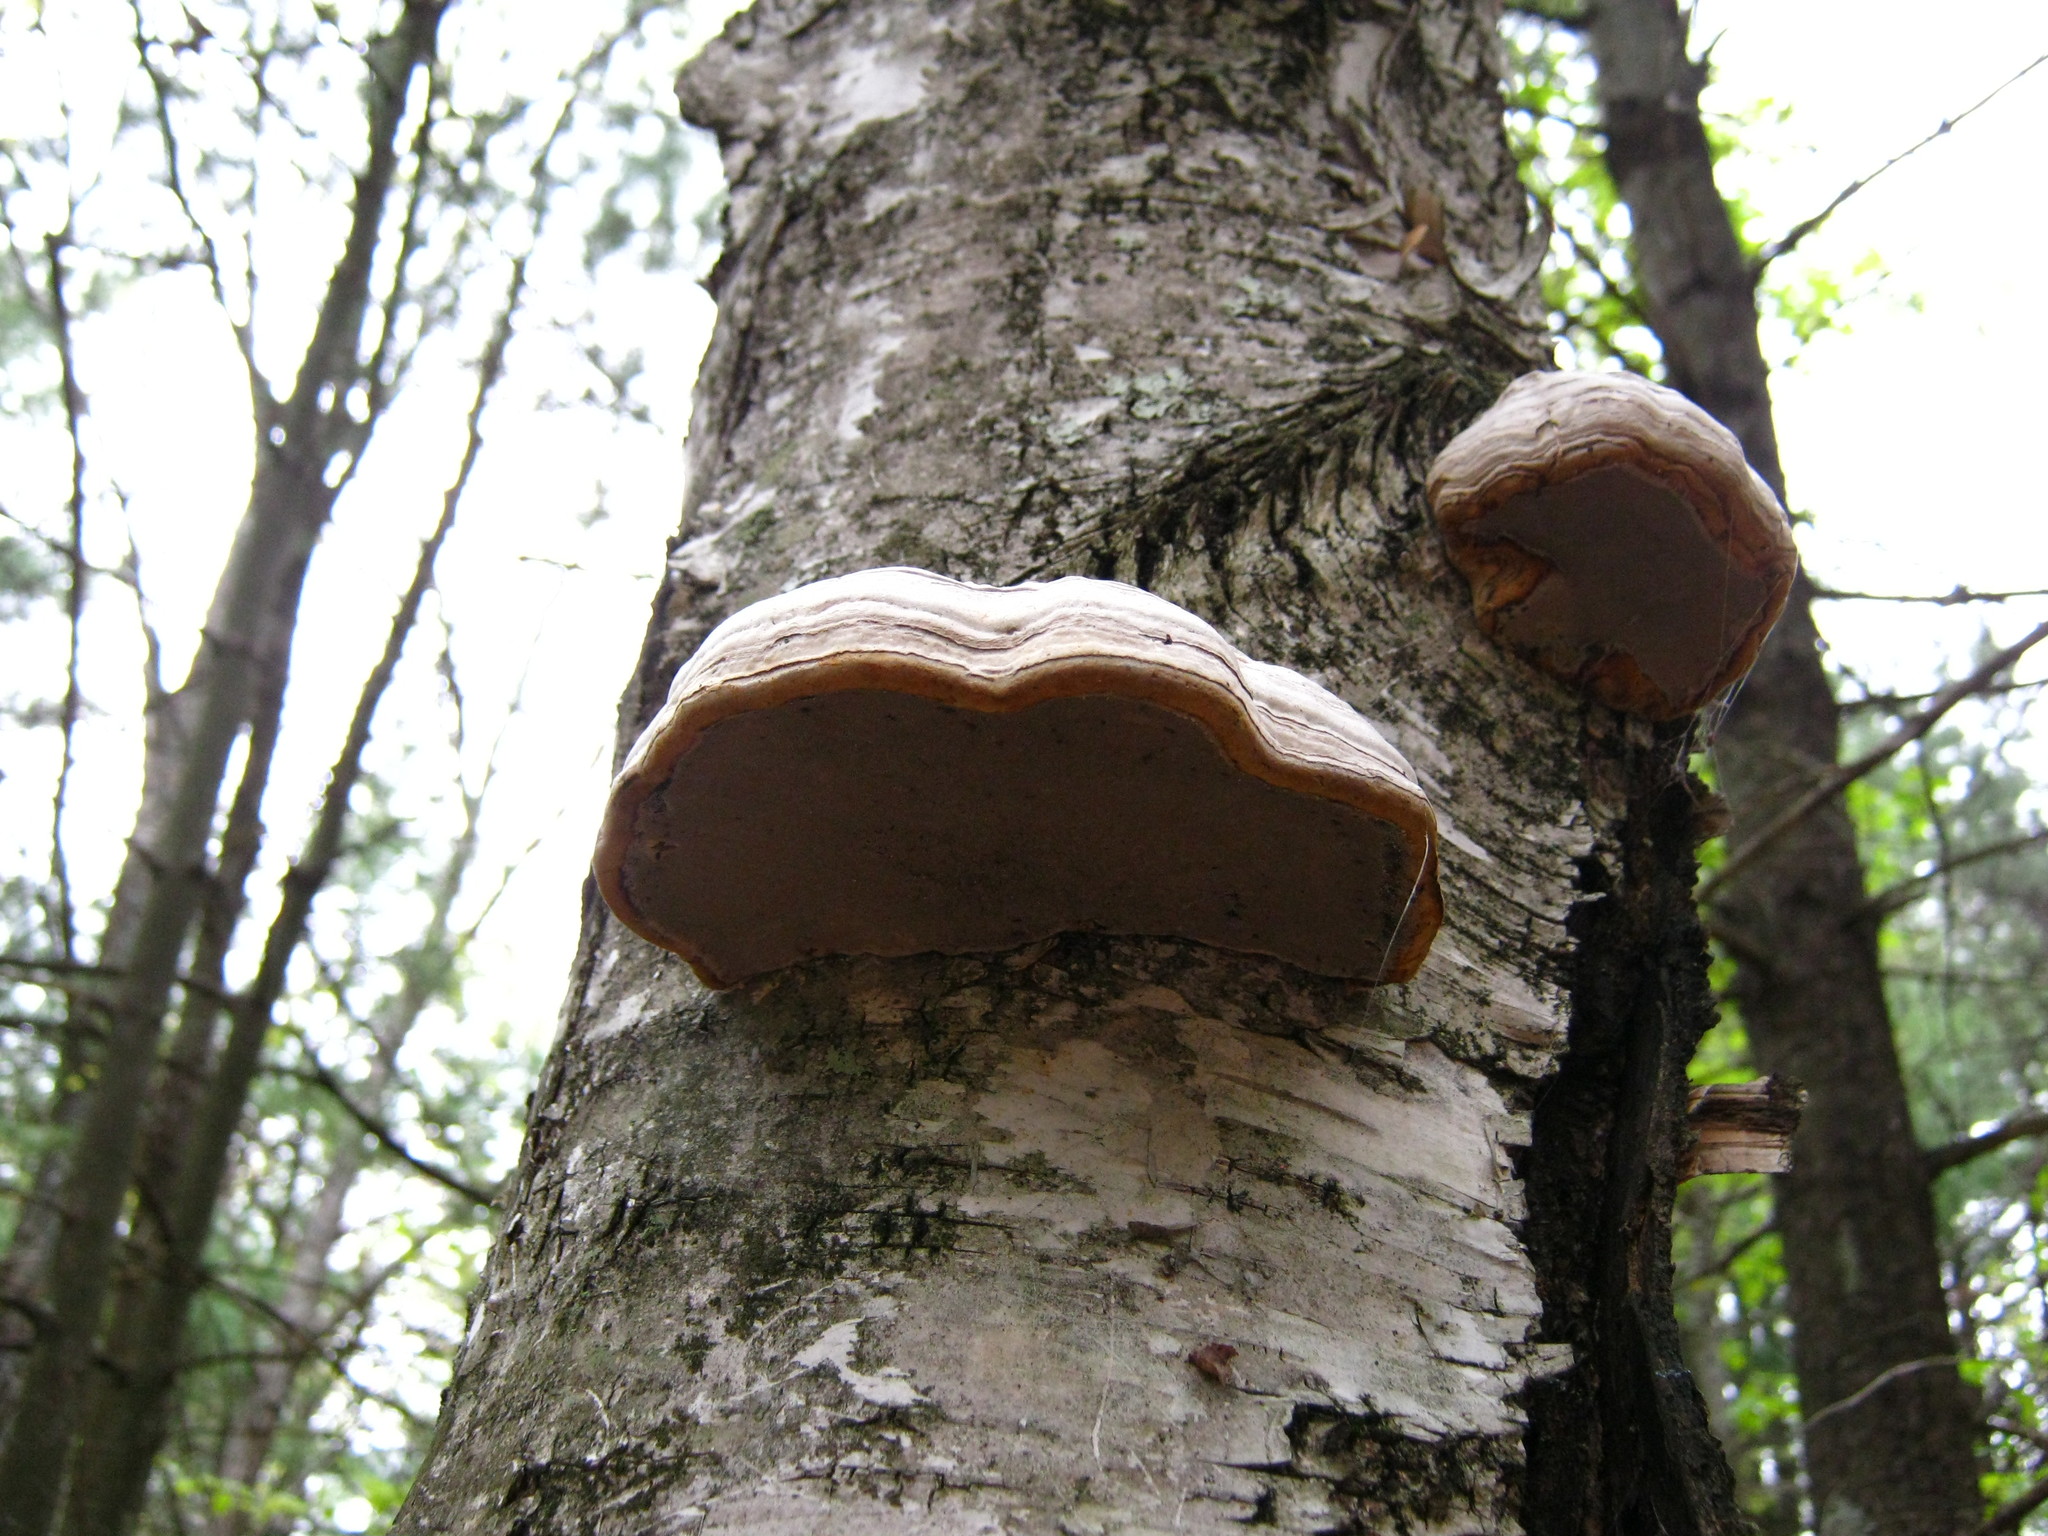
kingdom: Fungi
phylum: Basidiomycota
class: Agaricomycetes
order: Polyporales
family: Polyporaceae
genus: Fomes
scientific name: Fomes fomentarius
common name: Hoof fungus
